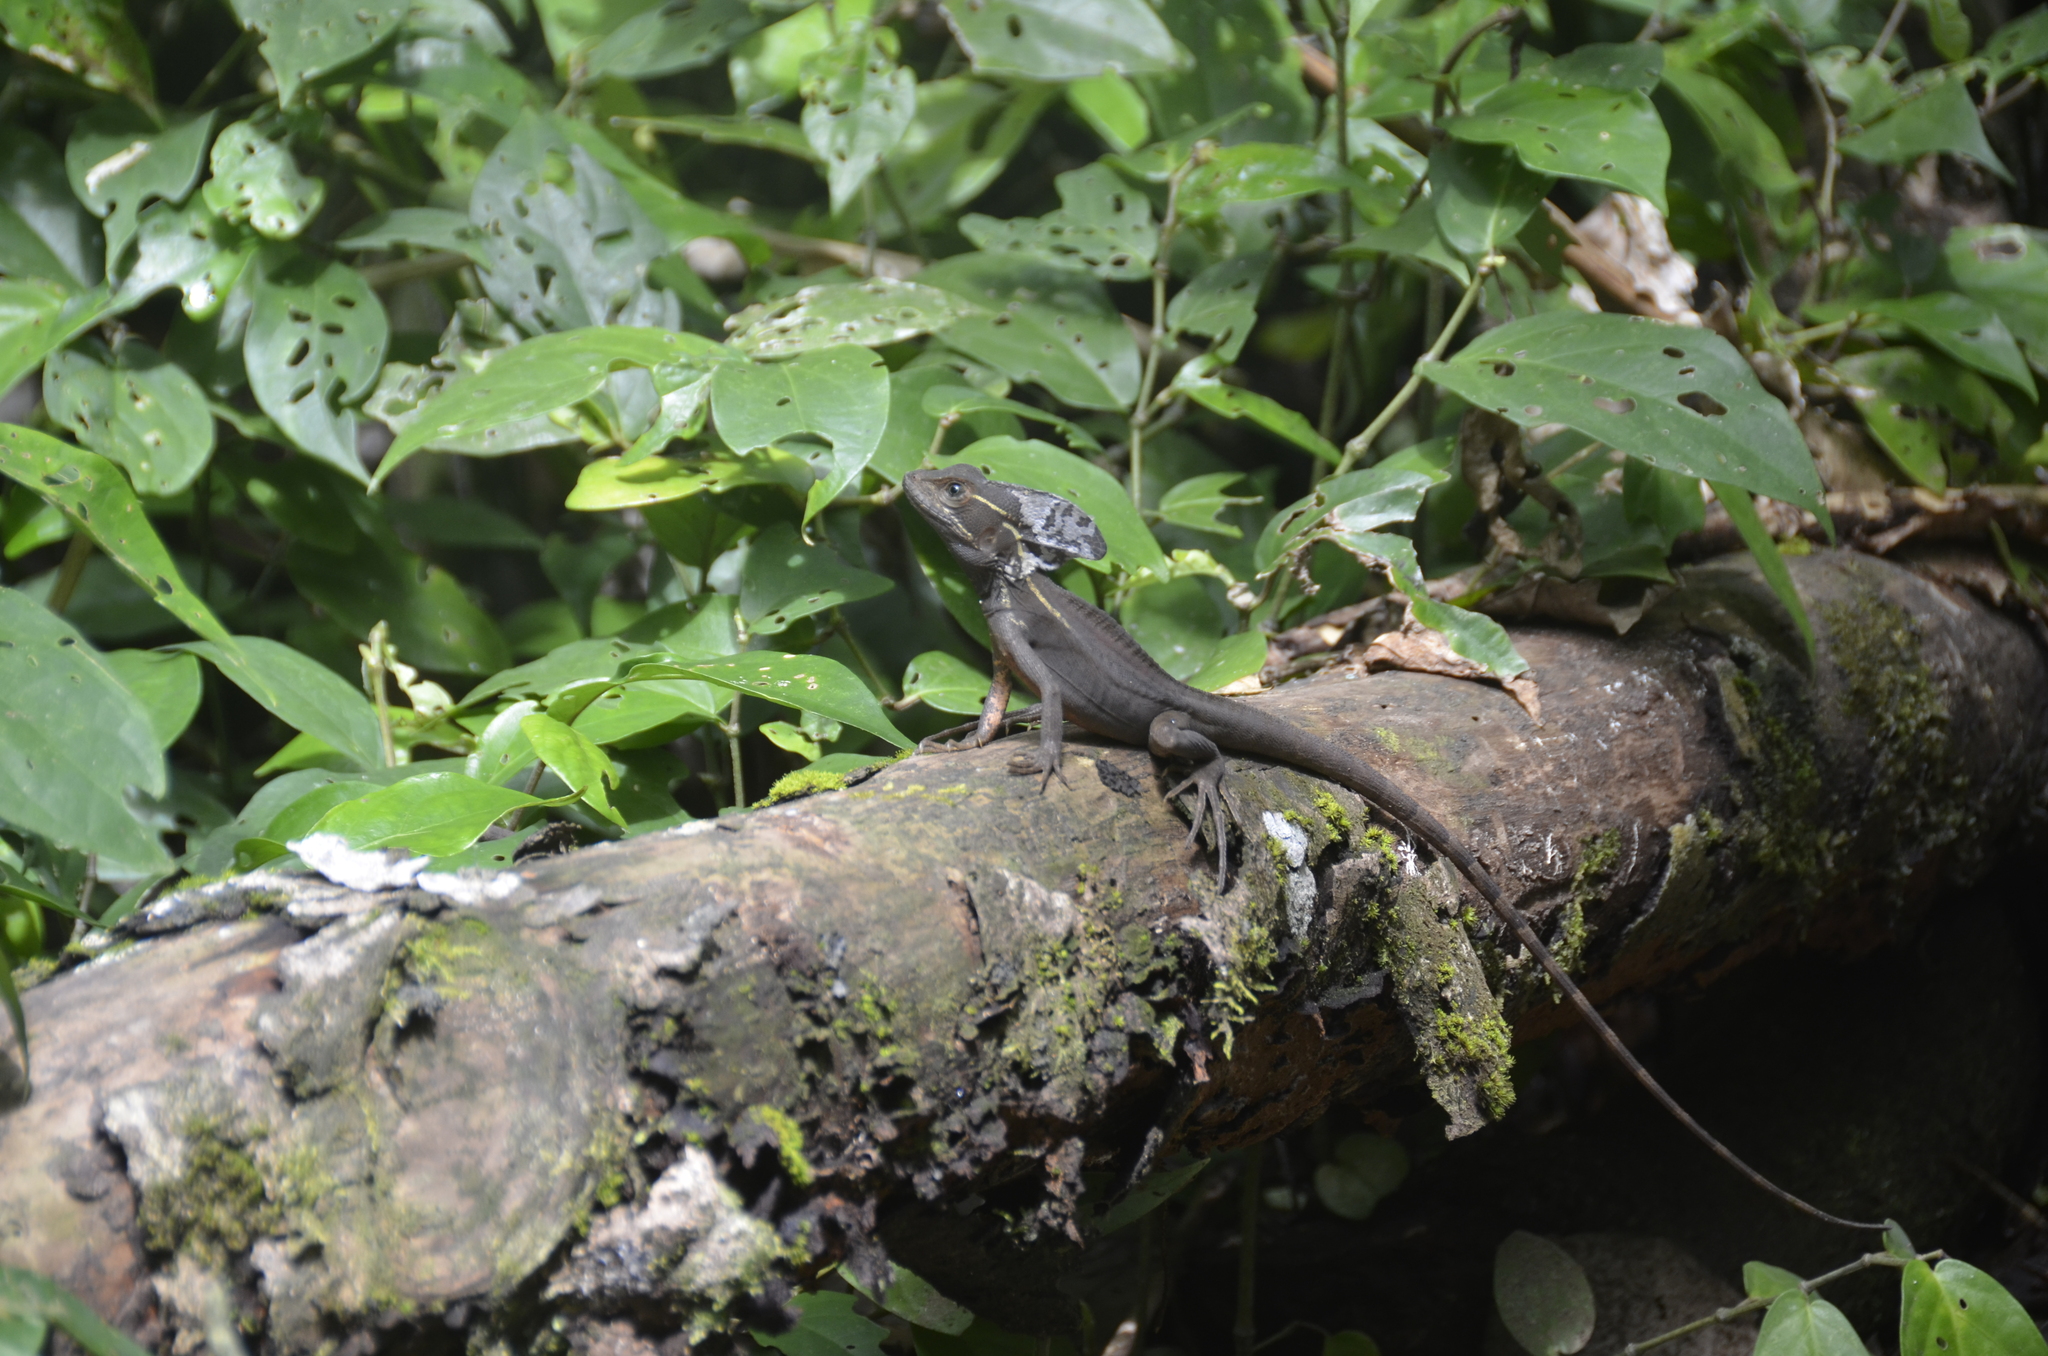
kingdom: Animalia
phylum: Chordata
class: Squamata
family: Corytophanidae
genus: Basiliscus
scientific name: Basiliscus vittatus
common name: Brown basilisk
